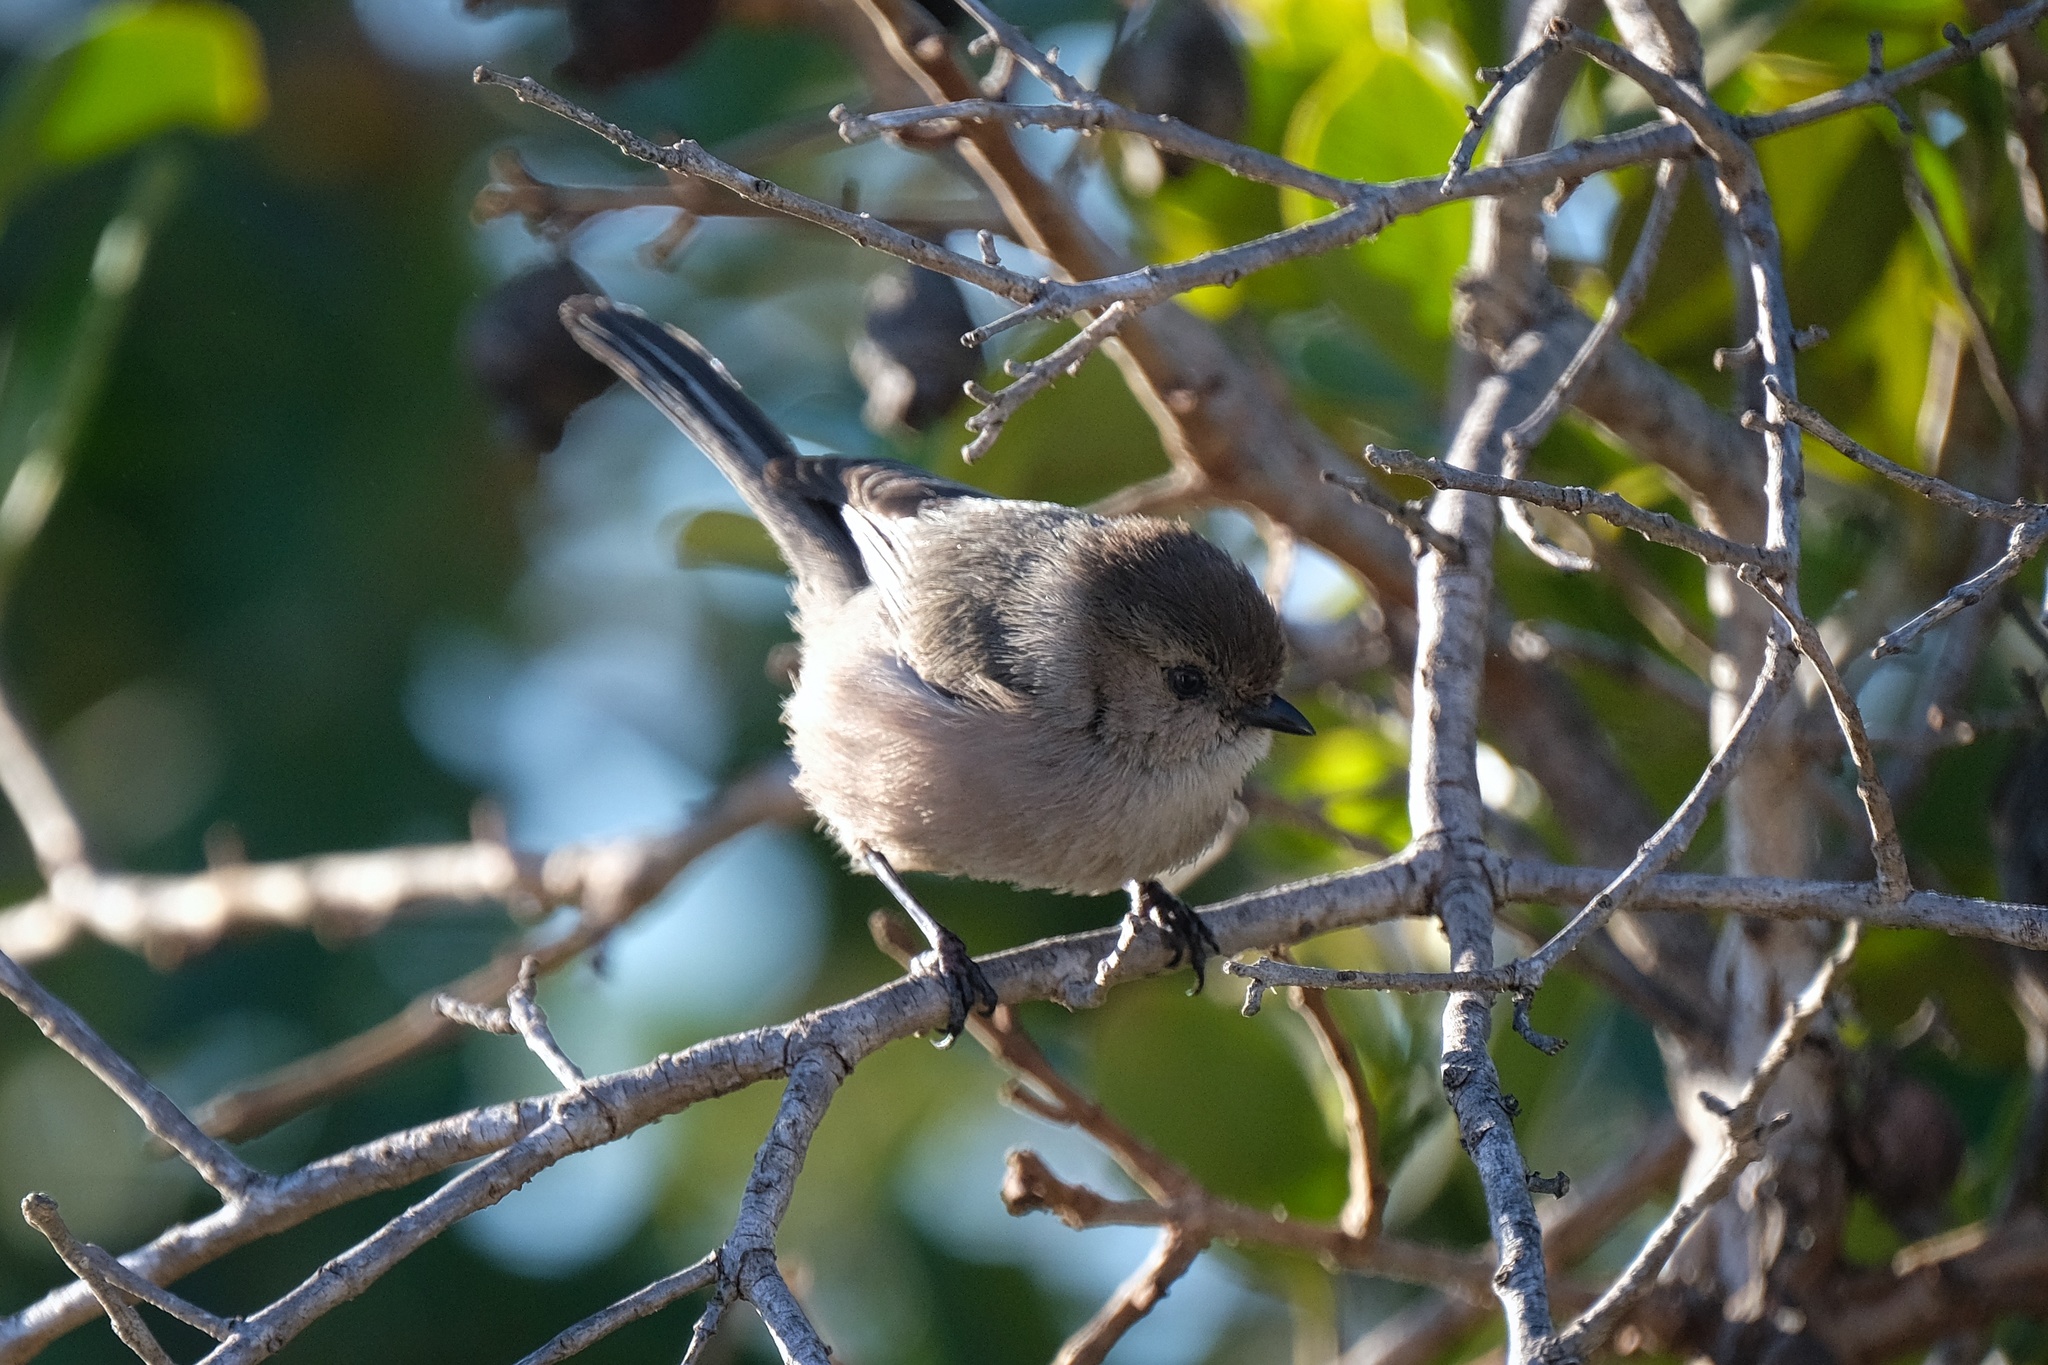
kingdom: Animalia
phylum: Chordata
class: Aves
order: Passeriformes
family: Aegithalidae
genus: Psaltriparus
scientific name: Psaltriparus minimus
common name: American bushtit
